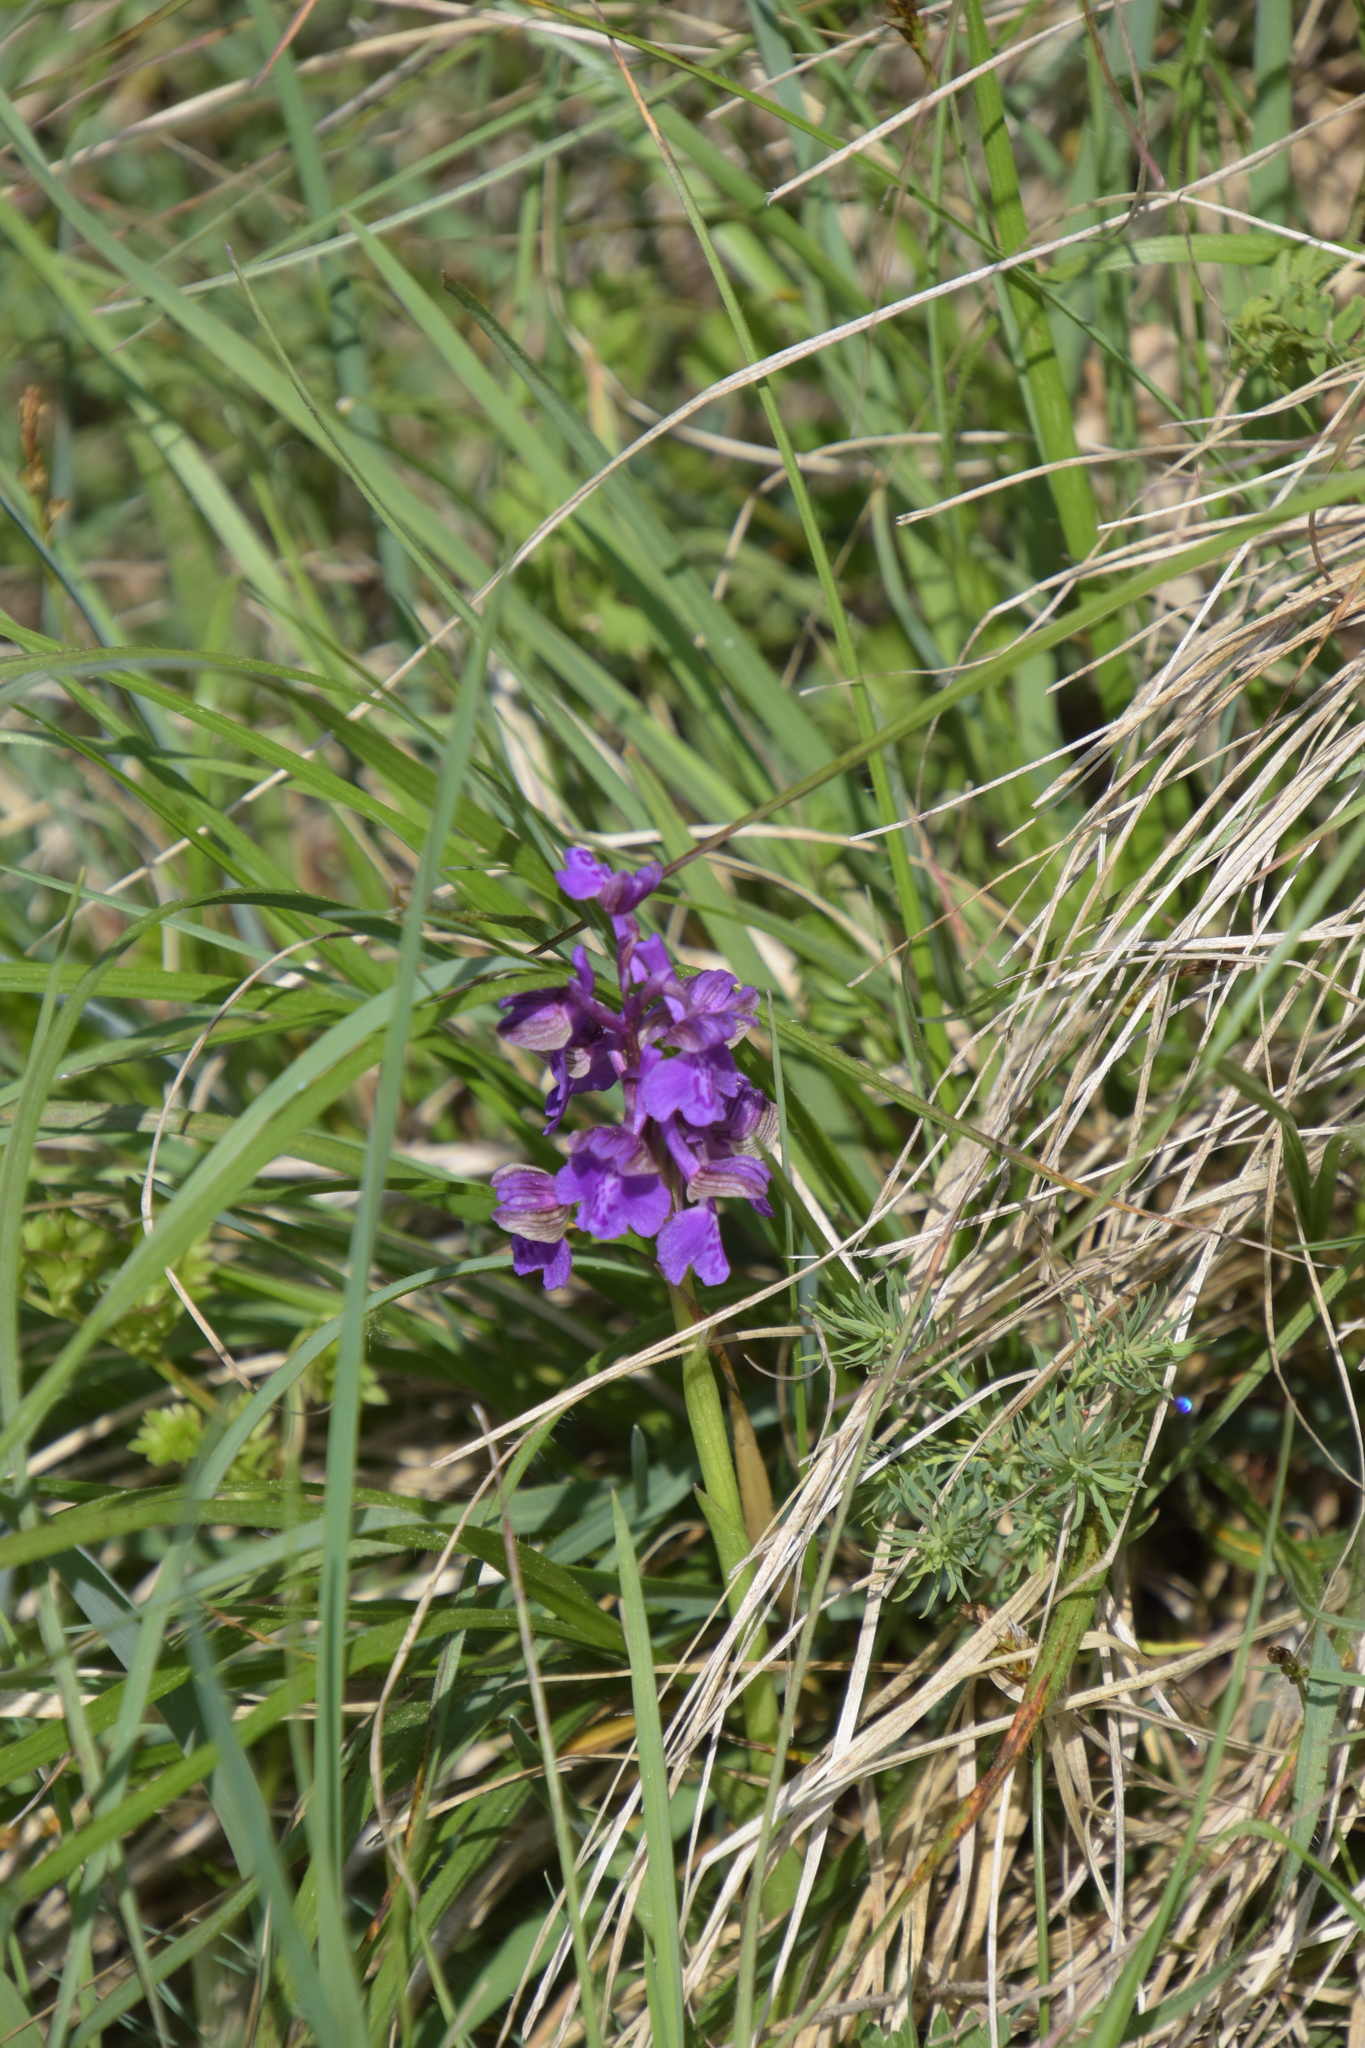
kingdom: Plantae
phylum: Tracheophyta
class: Liliopsida
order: Asparagales
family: Orchidaceae
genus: Anacamptis
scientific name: Anacamptis morio
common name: Green-winged orchid
